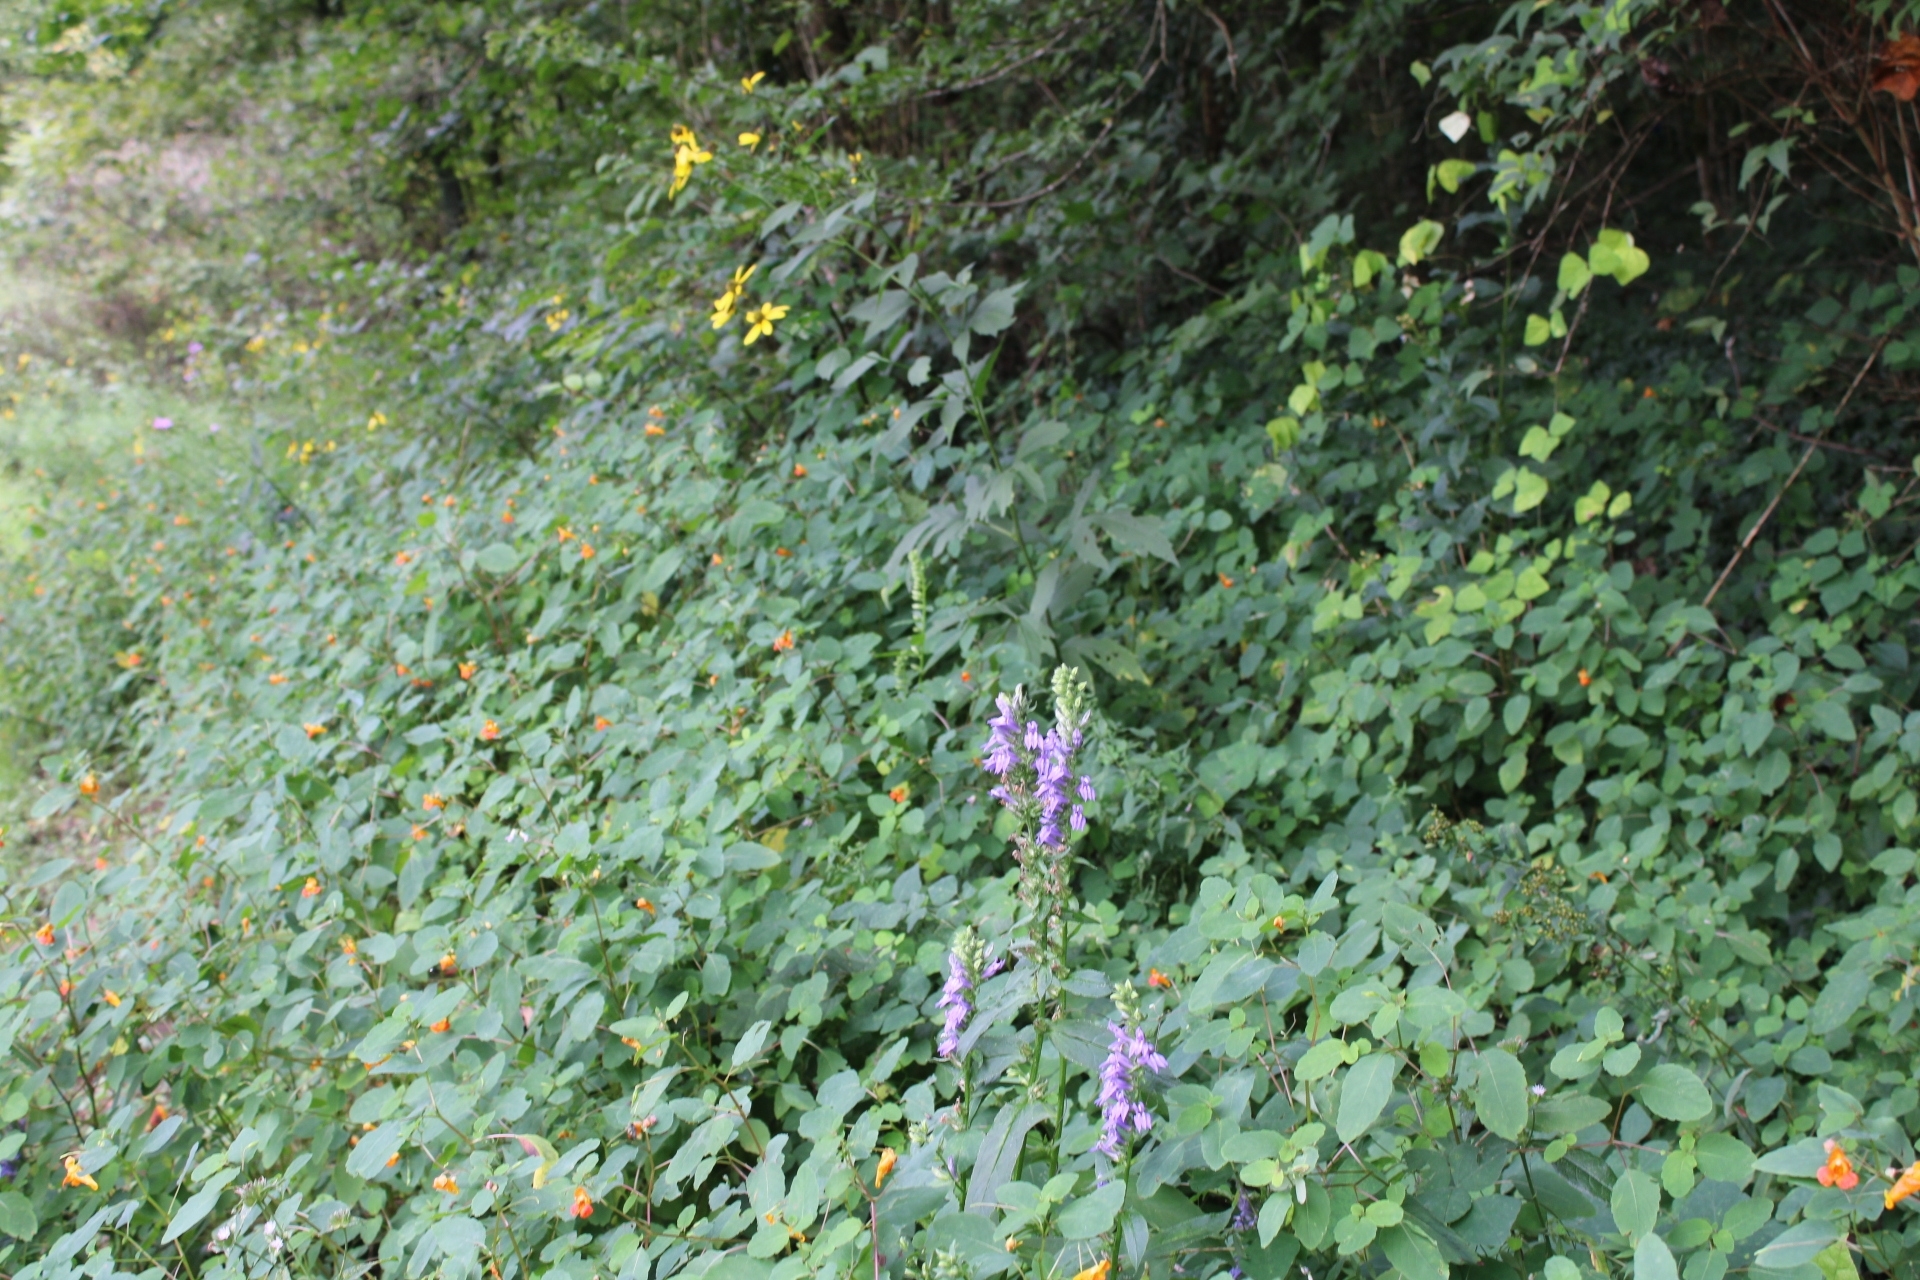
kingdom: Plantae
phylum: Tracheophyta
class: Magnoliopsida
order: Asterales
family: Campanulaceae
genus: Lobelia
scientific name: Lobelia siphilitica
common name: Great lobelia
